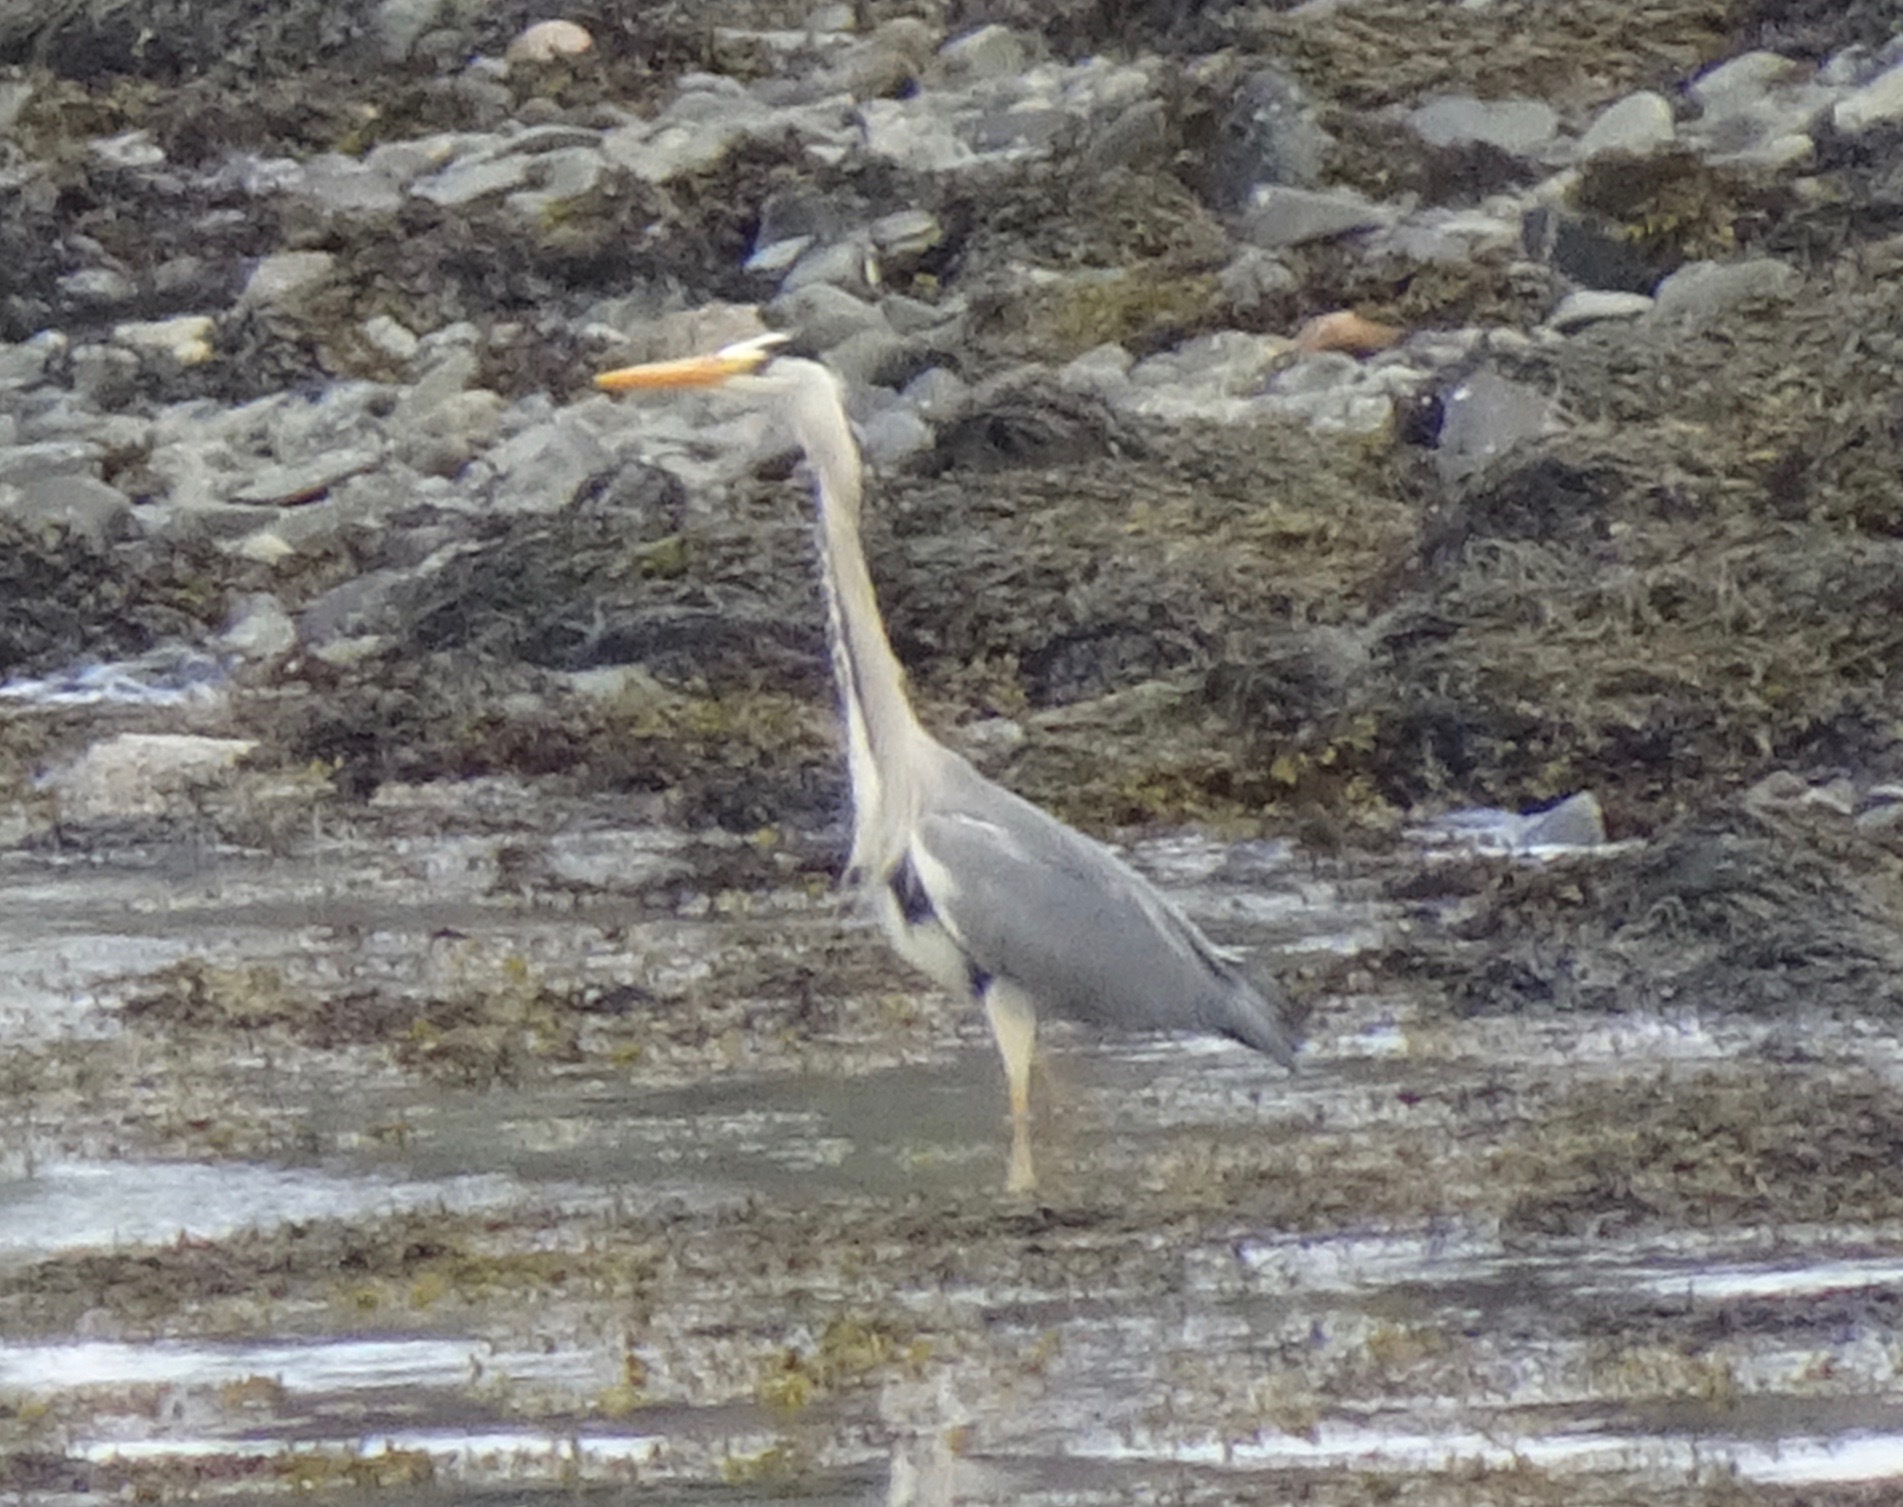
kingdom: Animalia
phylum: Chordata
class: Aves
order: Pelecaniformes
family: Ardeidae
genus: Ardea
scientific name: Ardea cinerea
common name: Grey heron
